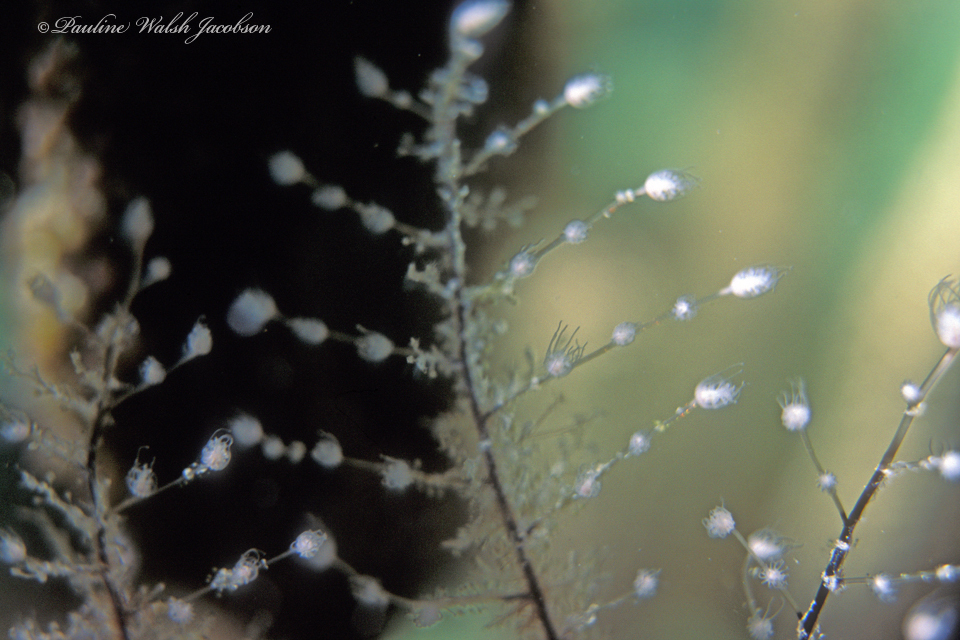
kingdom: Animalia
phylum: Cnidaria
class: Hydrozoa
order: Anthoathecata
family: Pennariidae
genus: Pennaria
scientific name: Pennaria disticha
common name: Feather hydroid
